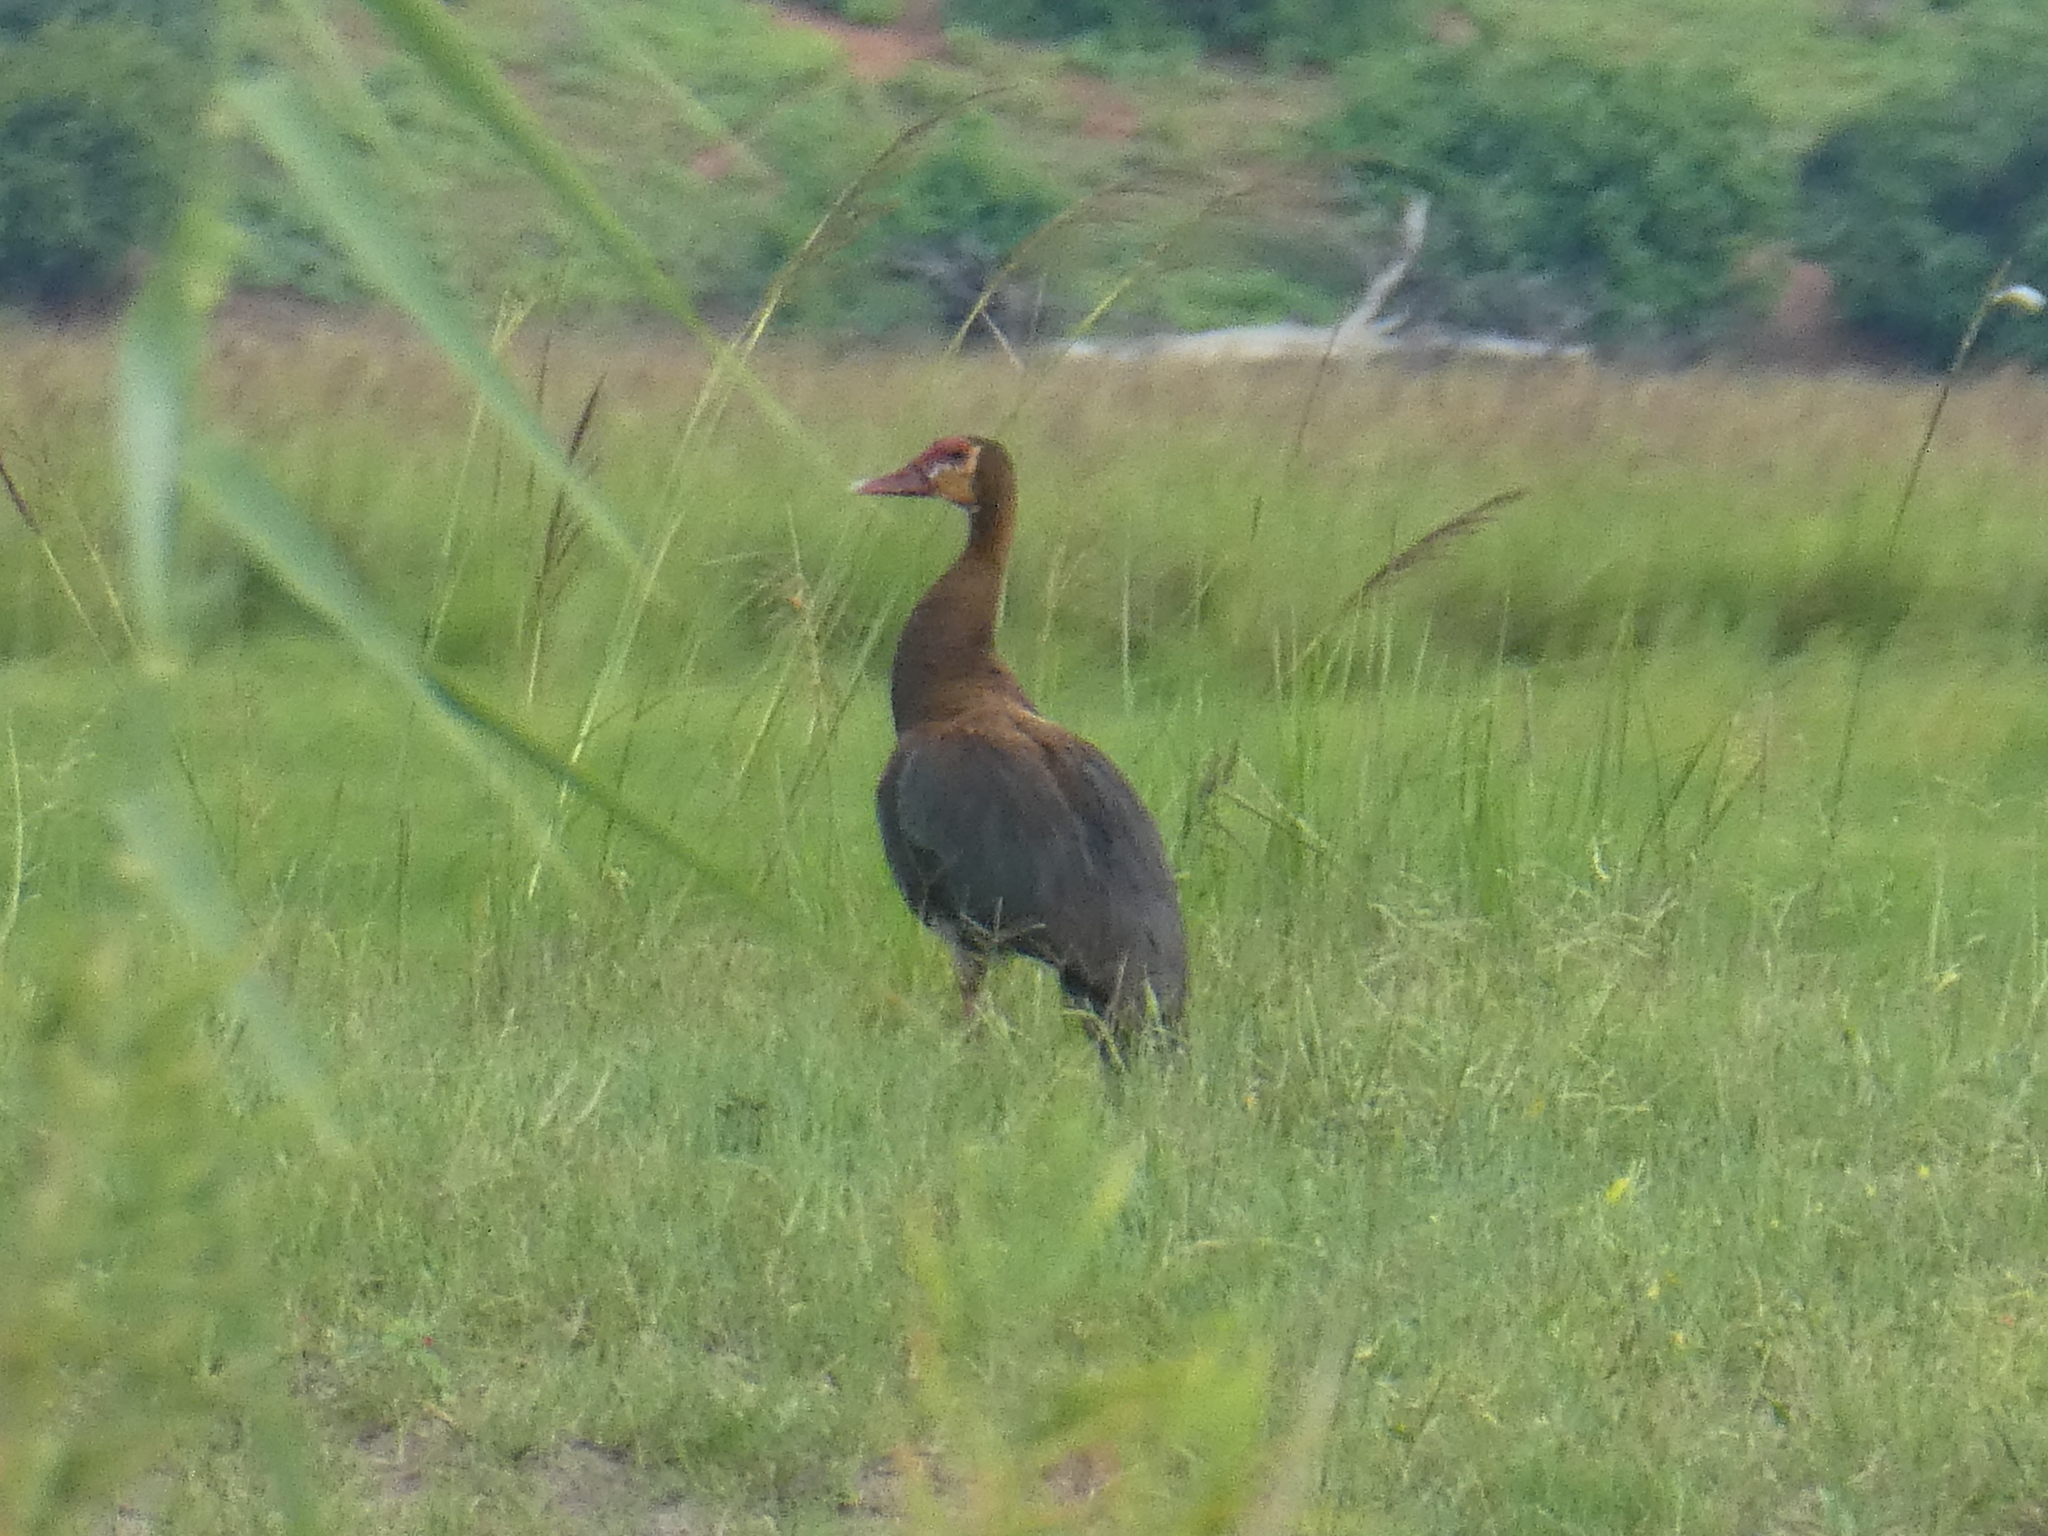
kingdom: Animalia
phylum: Chordata
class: Aves
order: Anseriformes
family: Anatidae
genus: Plectropterus
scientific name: Plectropterus gambensis
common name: Spur-winged goose
